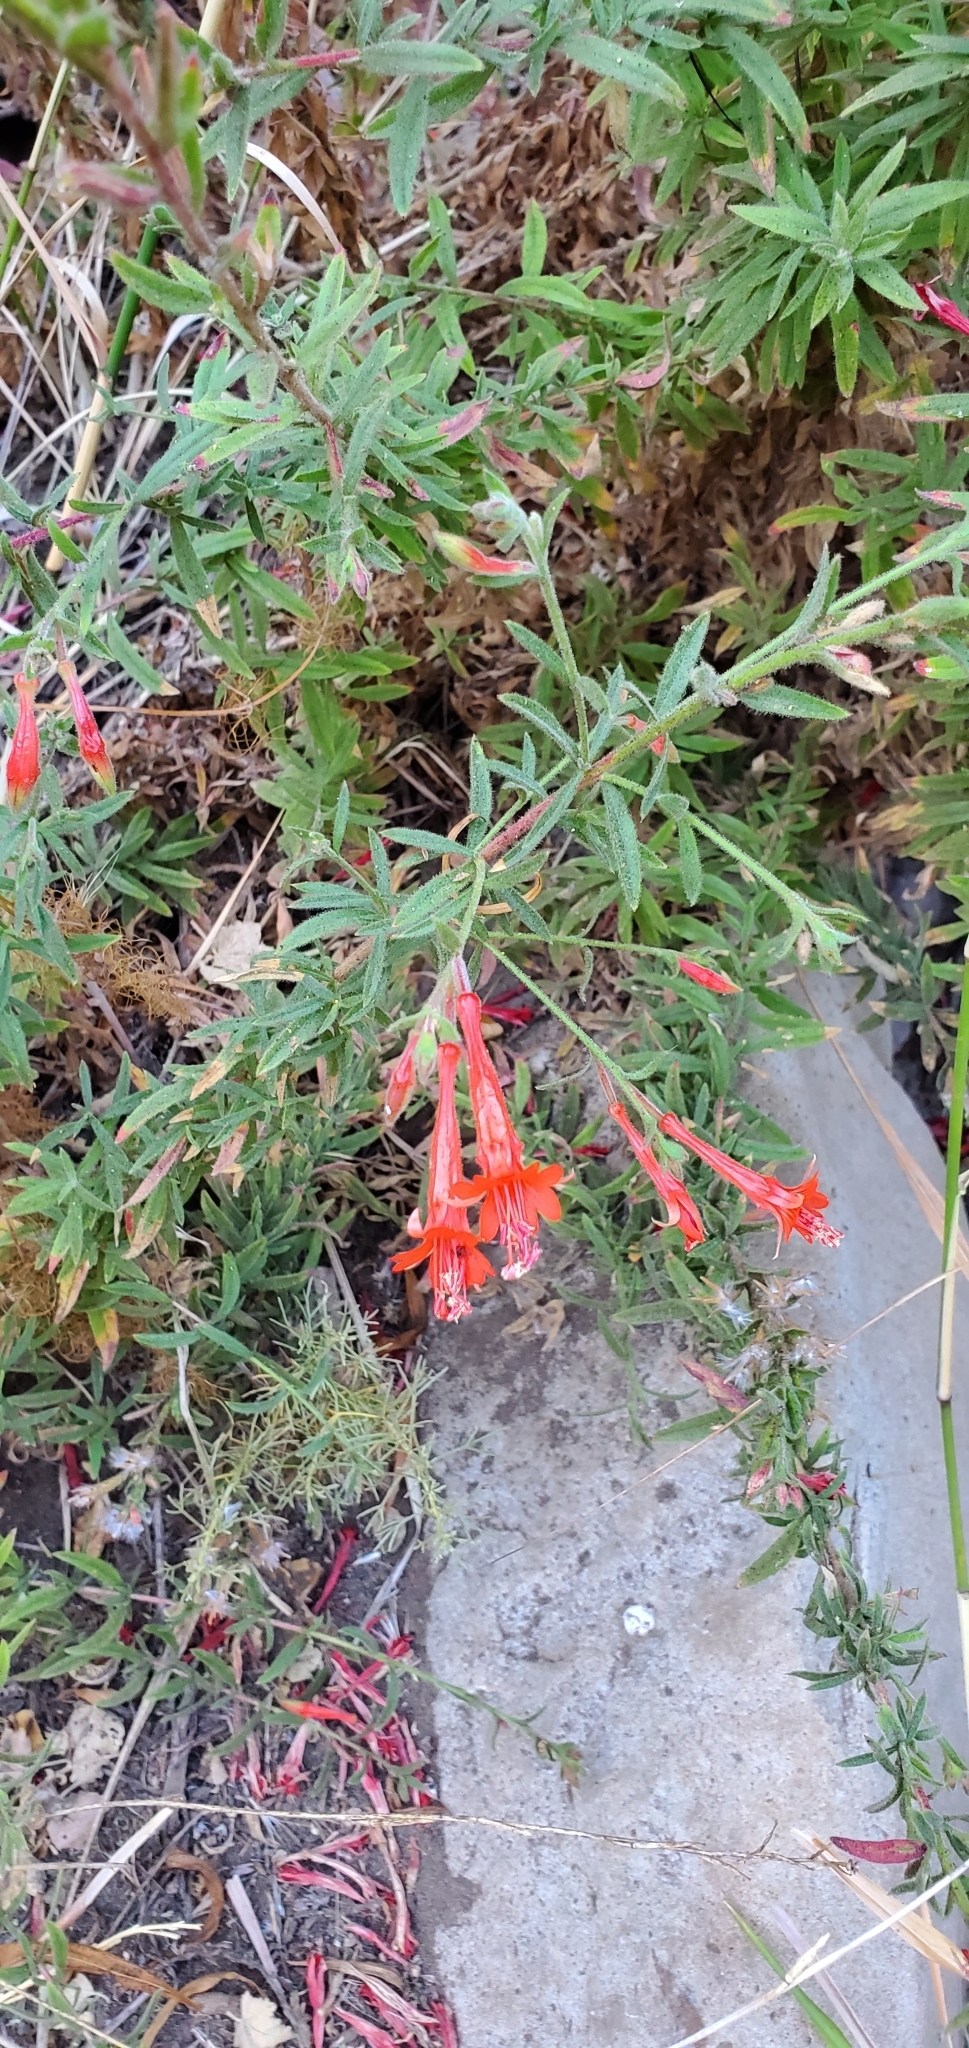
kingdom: Plantae
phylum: Tracheophyta
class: Magnoliopsida
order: Myrtales
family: Onagraceae
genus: Epilobium
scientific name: Epilobium canum
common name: California-fuchsia
